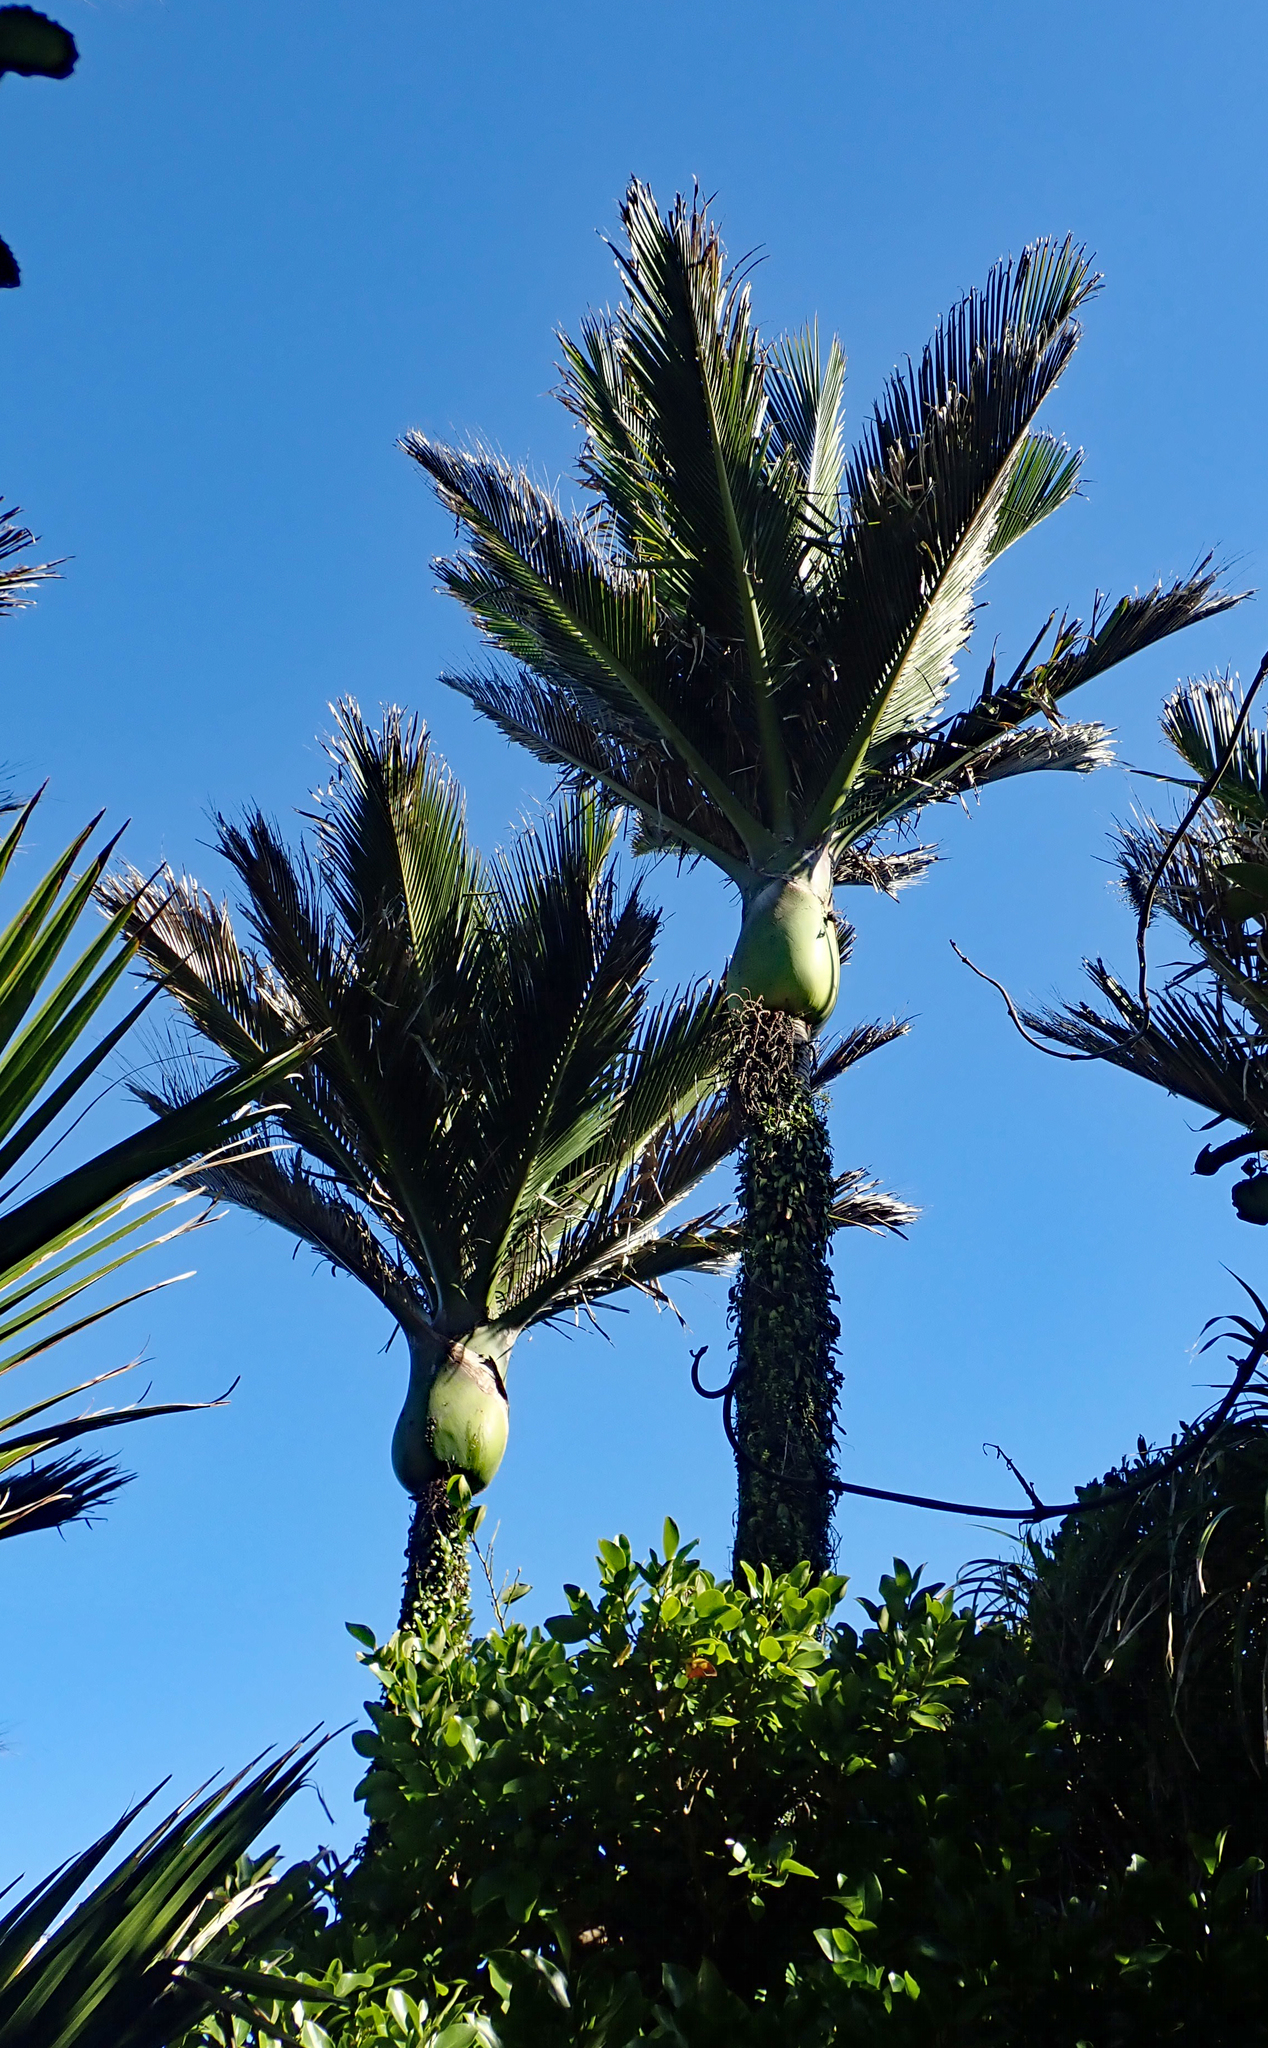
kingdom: Plantae
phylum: Tracheophyta
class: Liliopsida
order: Arecales
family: Arecaceae
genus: Rhopalostylis
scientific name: Rhopalostylis sapida
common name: Feather-duster palm
